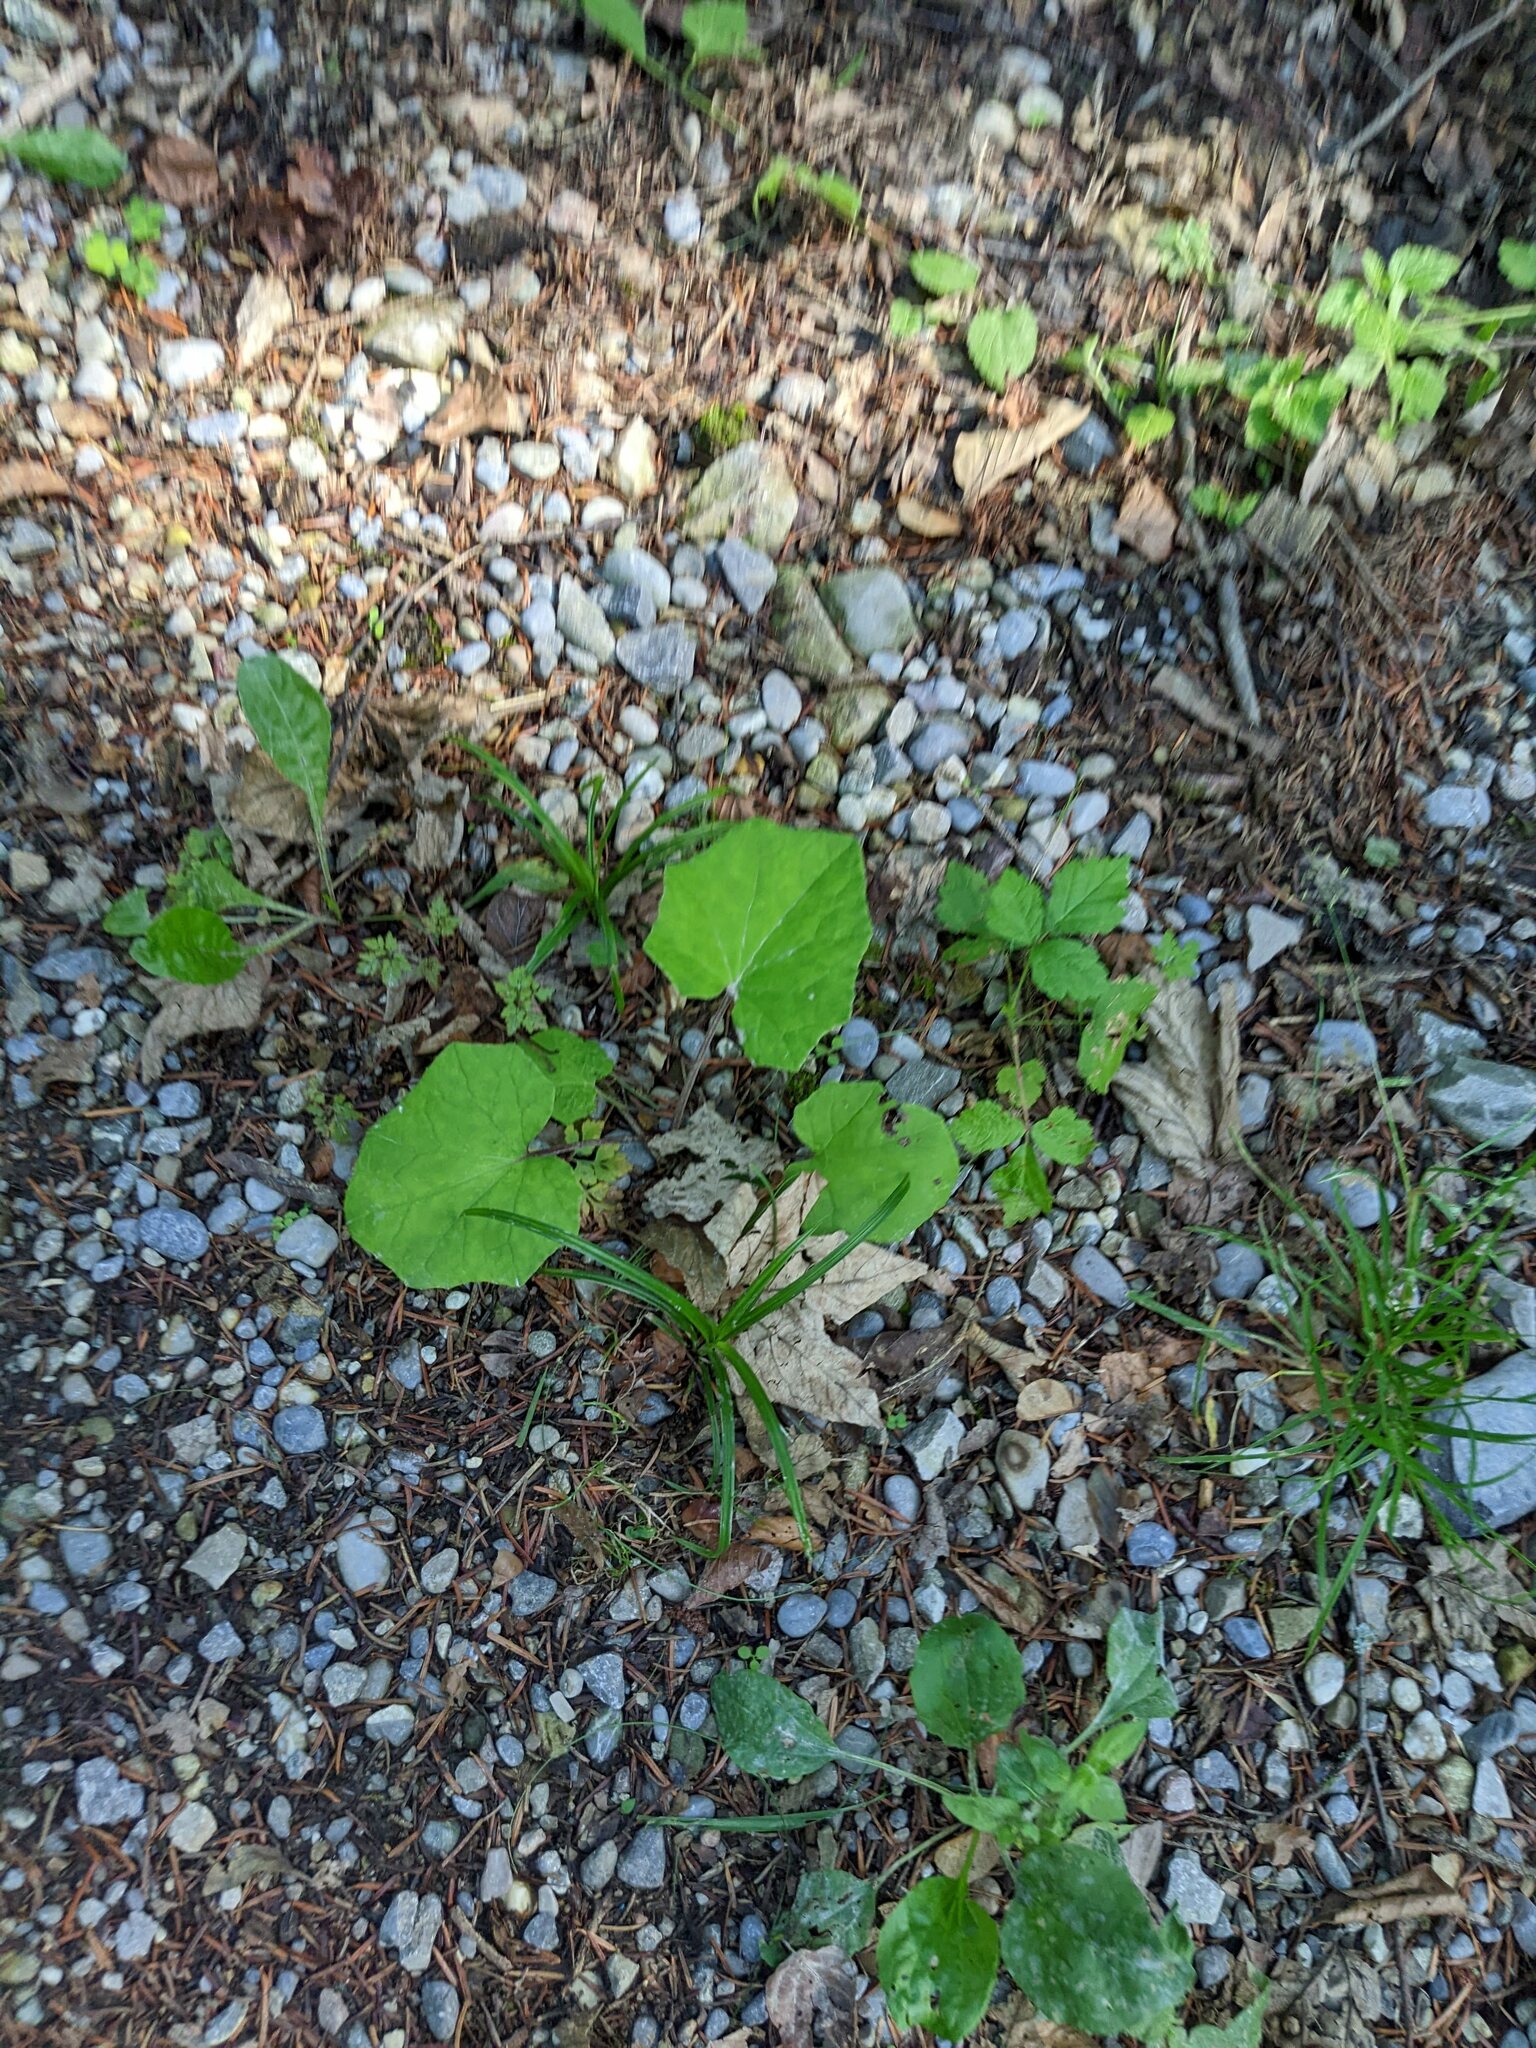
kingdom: Plantae
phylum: Tracheophyta
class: Magnoliopsida
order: Asterales
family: Asteraceae
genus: Tussilago
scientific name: Tussilago farfara
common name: Coltsfoot
